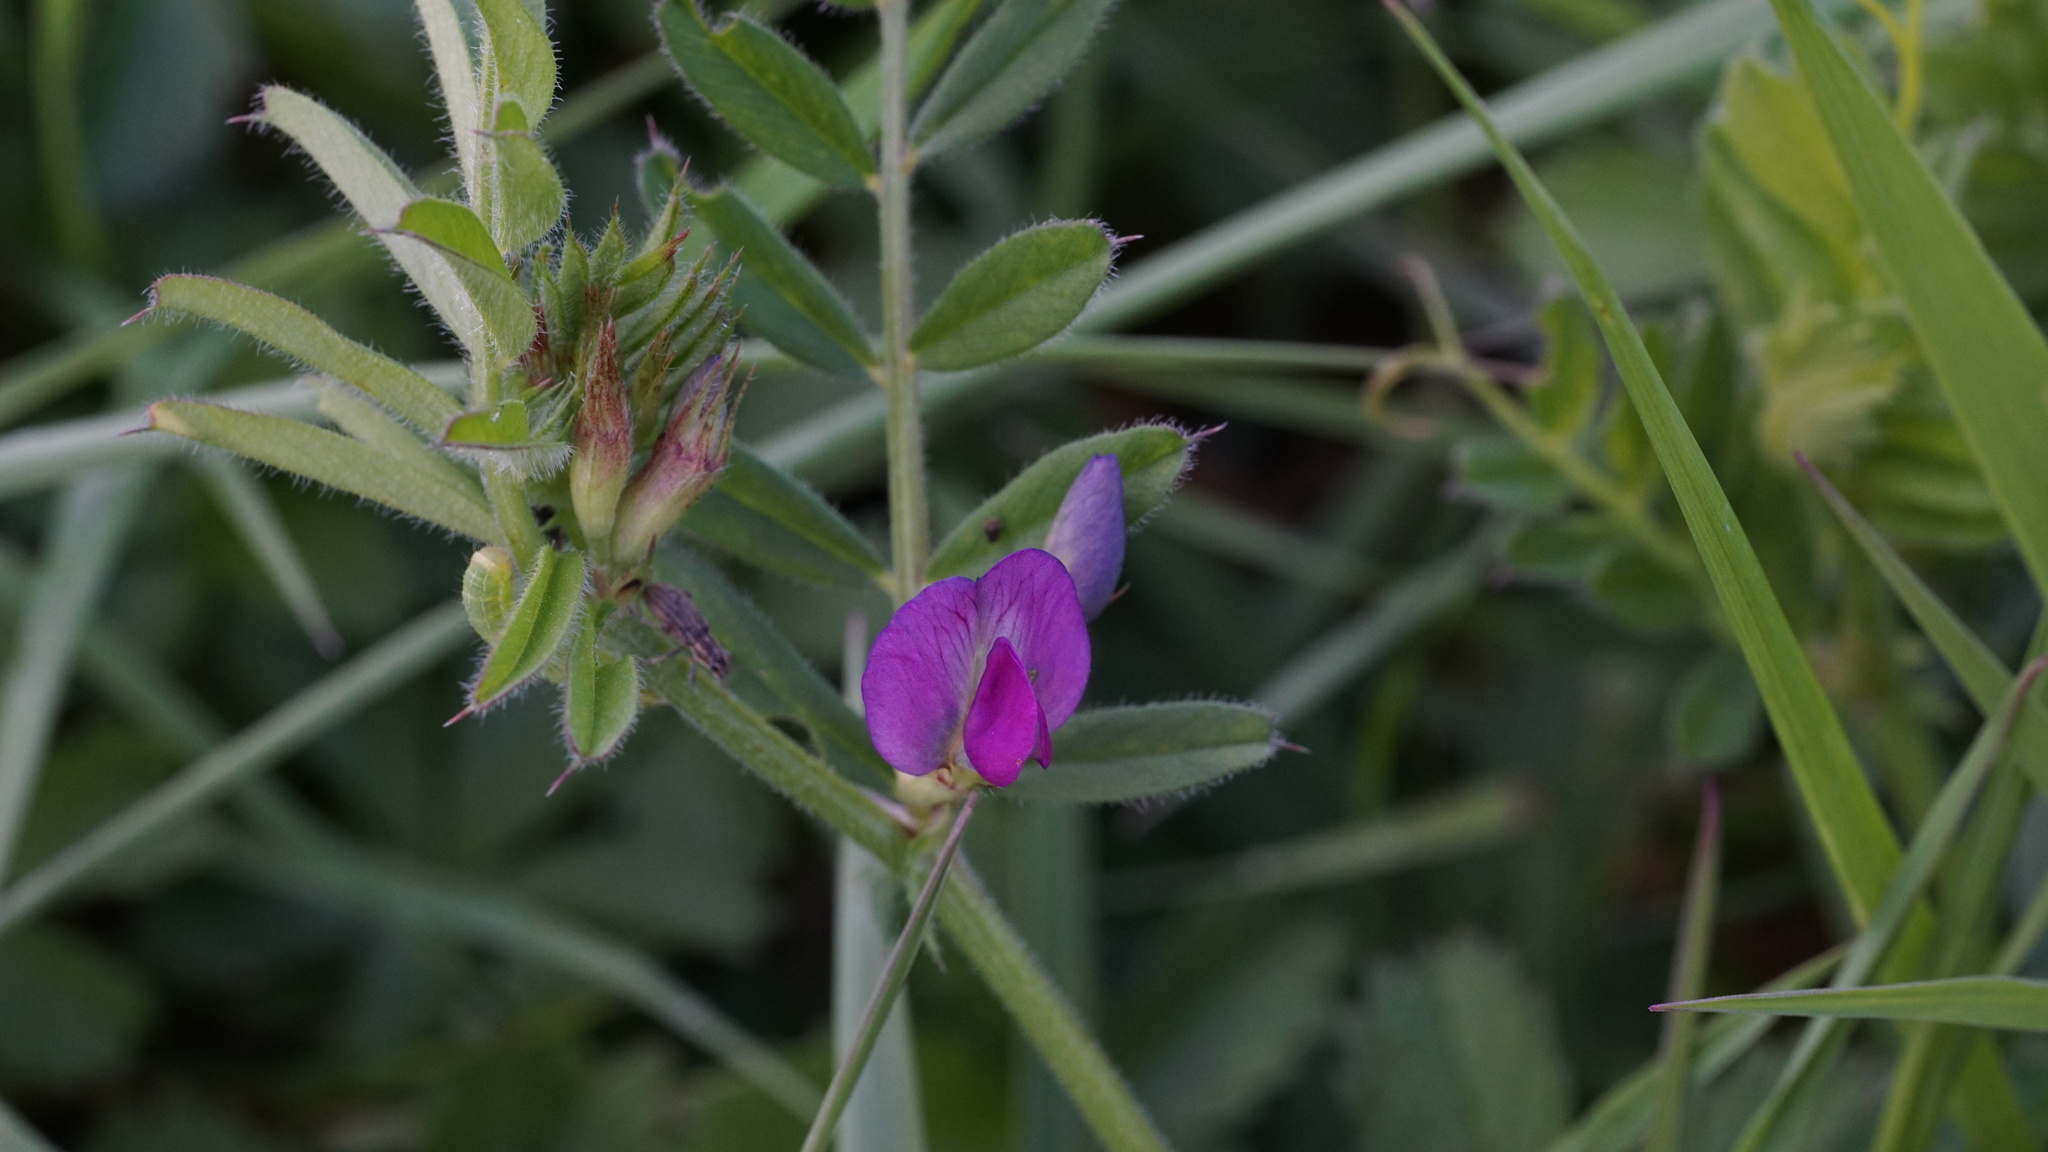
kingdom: Plantae
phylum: Tracheophyta
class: Magnoliopsida
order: Fabales
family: Fabaceae
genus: Vicia
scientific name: Vicia sativa
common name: Garden vetch
